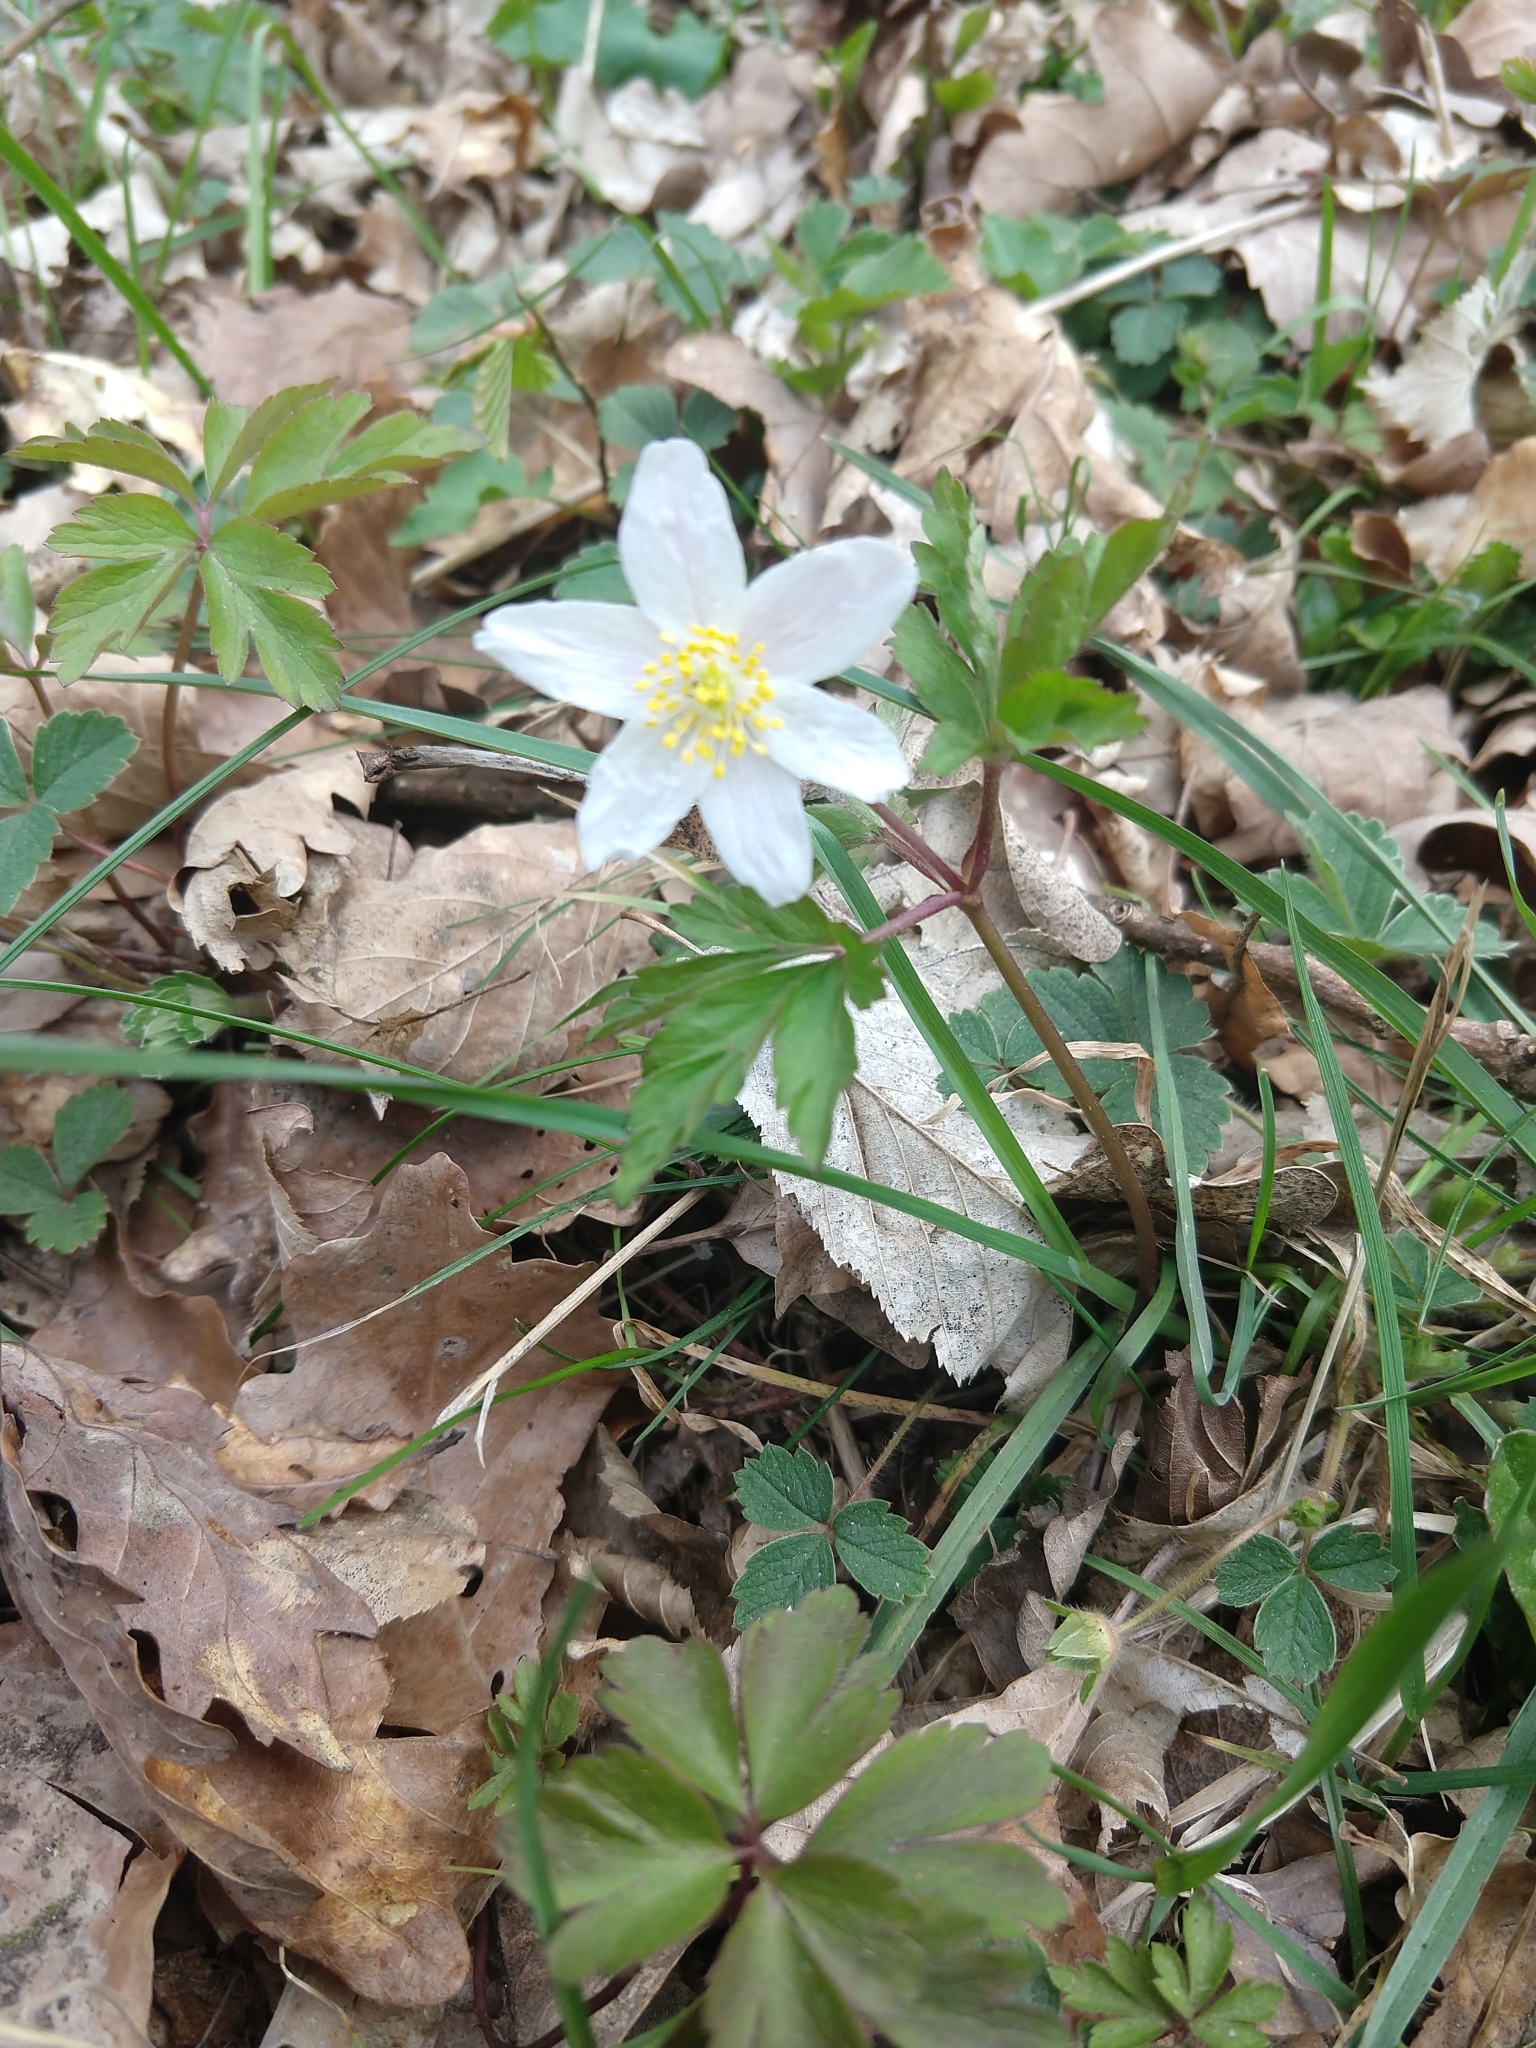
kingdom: Plantae
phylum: Tracheophyta
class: Magnoliopsida
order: Ranunculales
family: Ranunculaceae
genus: Anemone
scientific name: Anemone nemorosa
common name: Wood anemone
